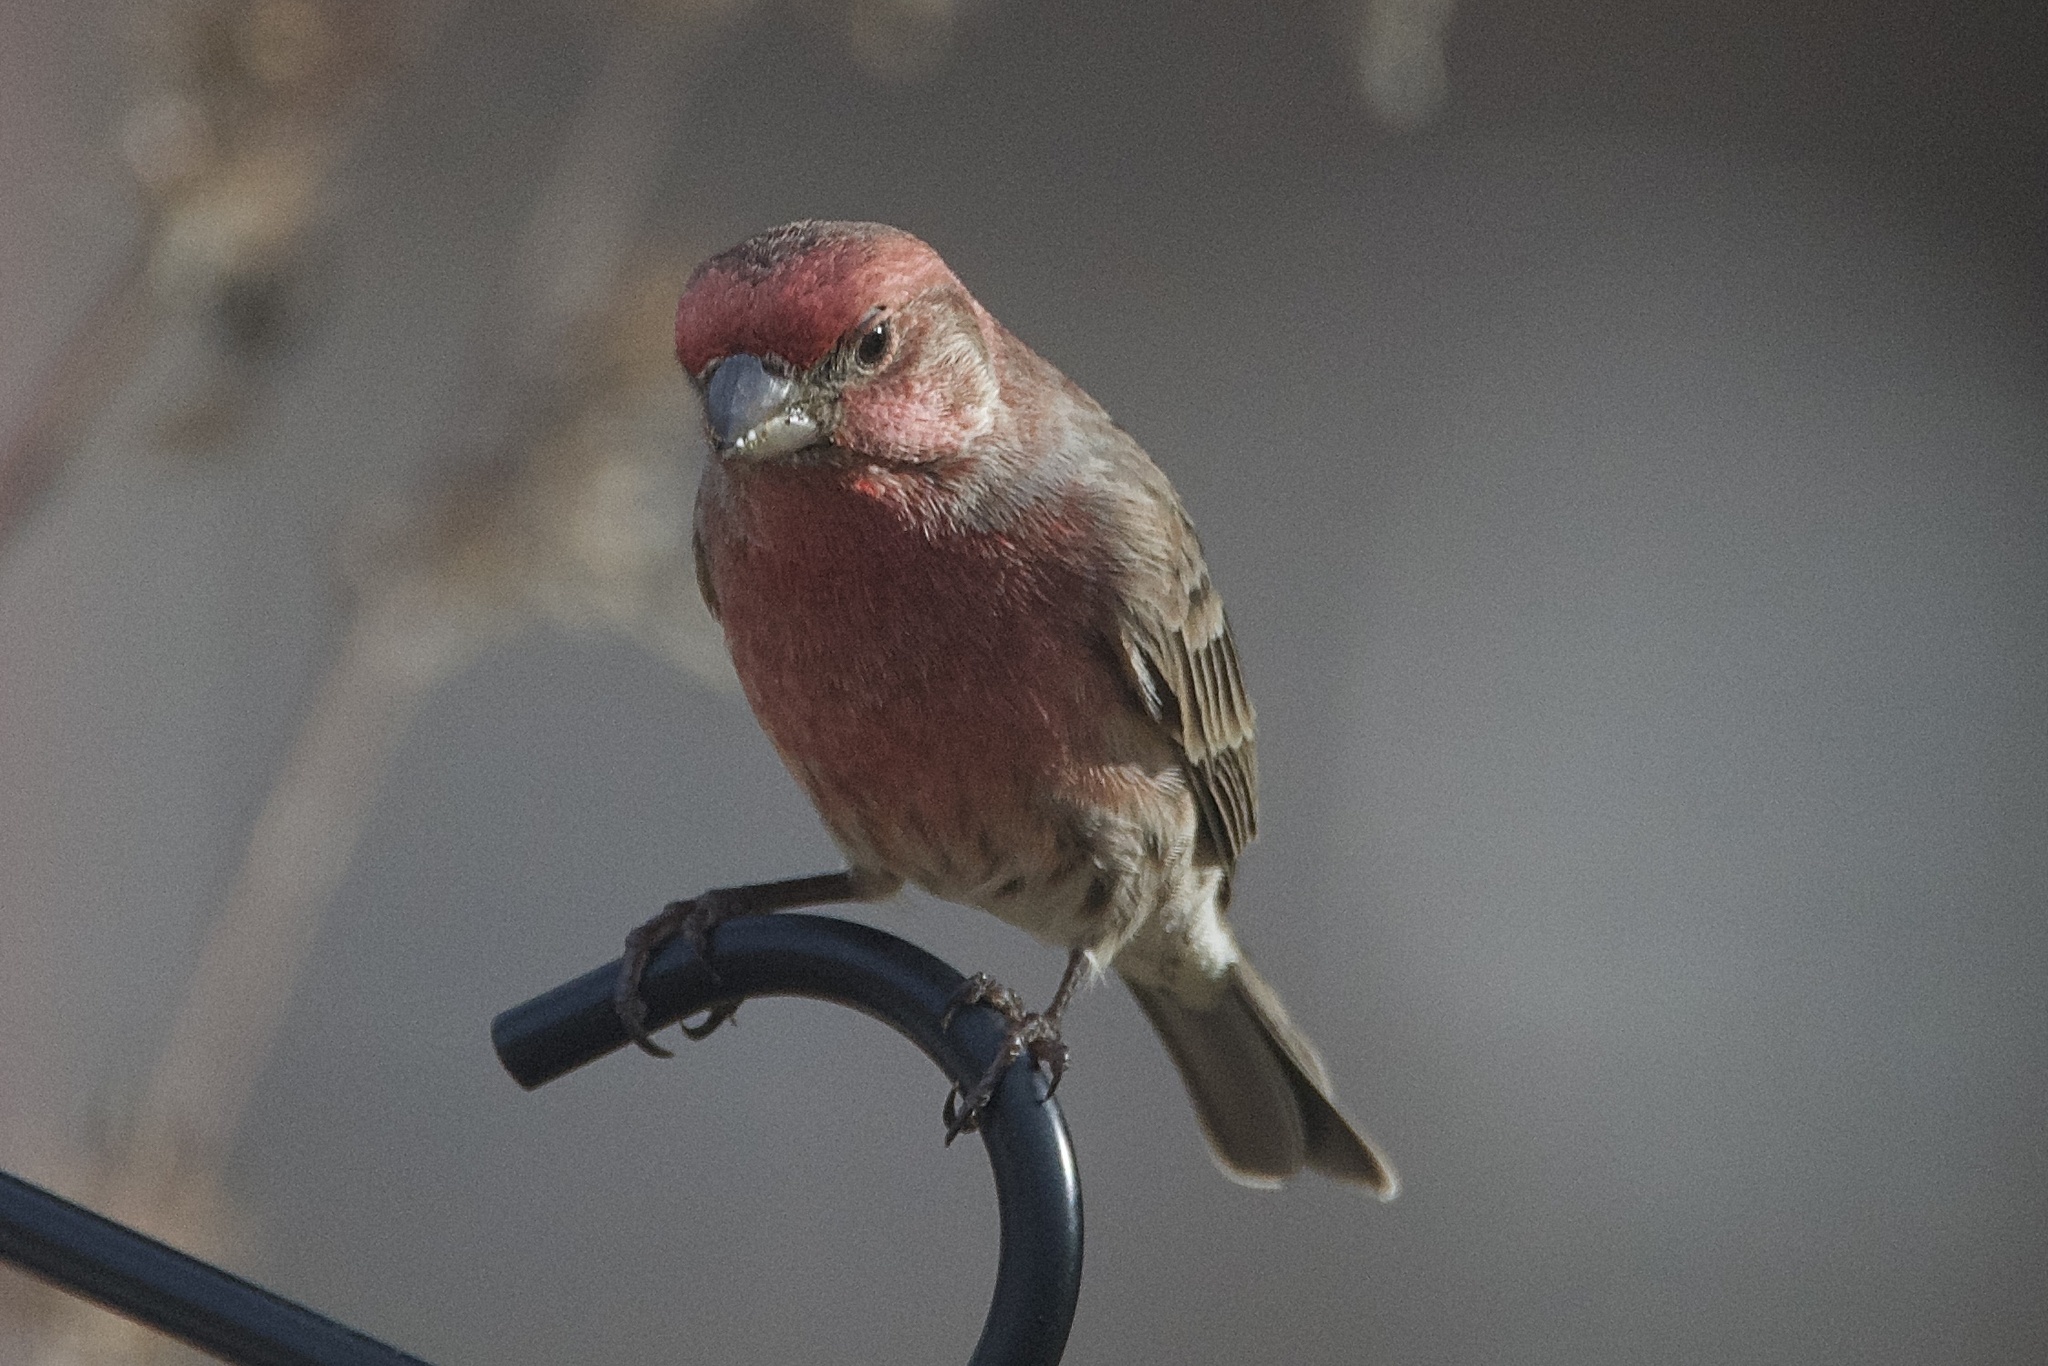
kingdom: Animalia
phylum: Chordata
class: Aves
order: Passeriformes
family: Fringillidae
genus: Haemorhous
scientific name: Haemorhous mexicanus
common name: House finch
